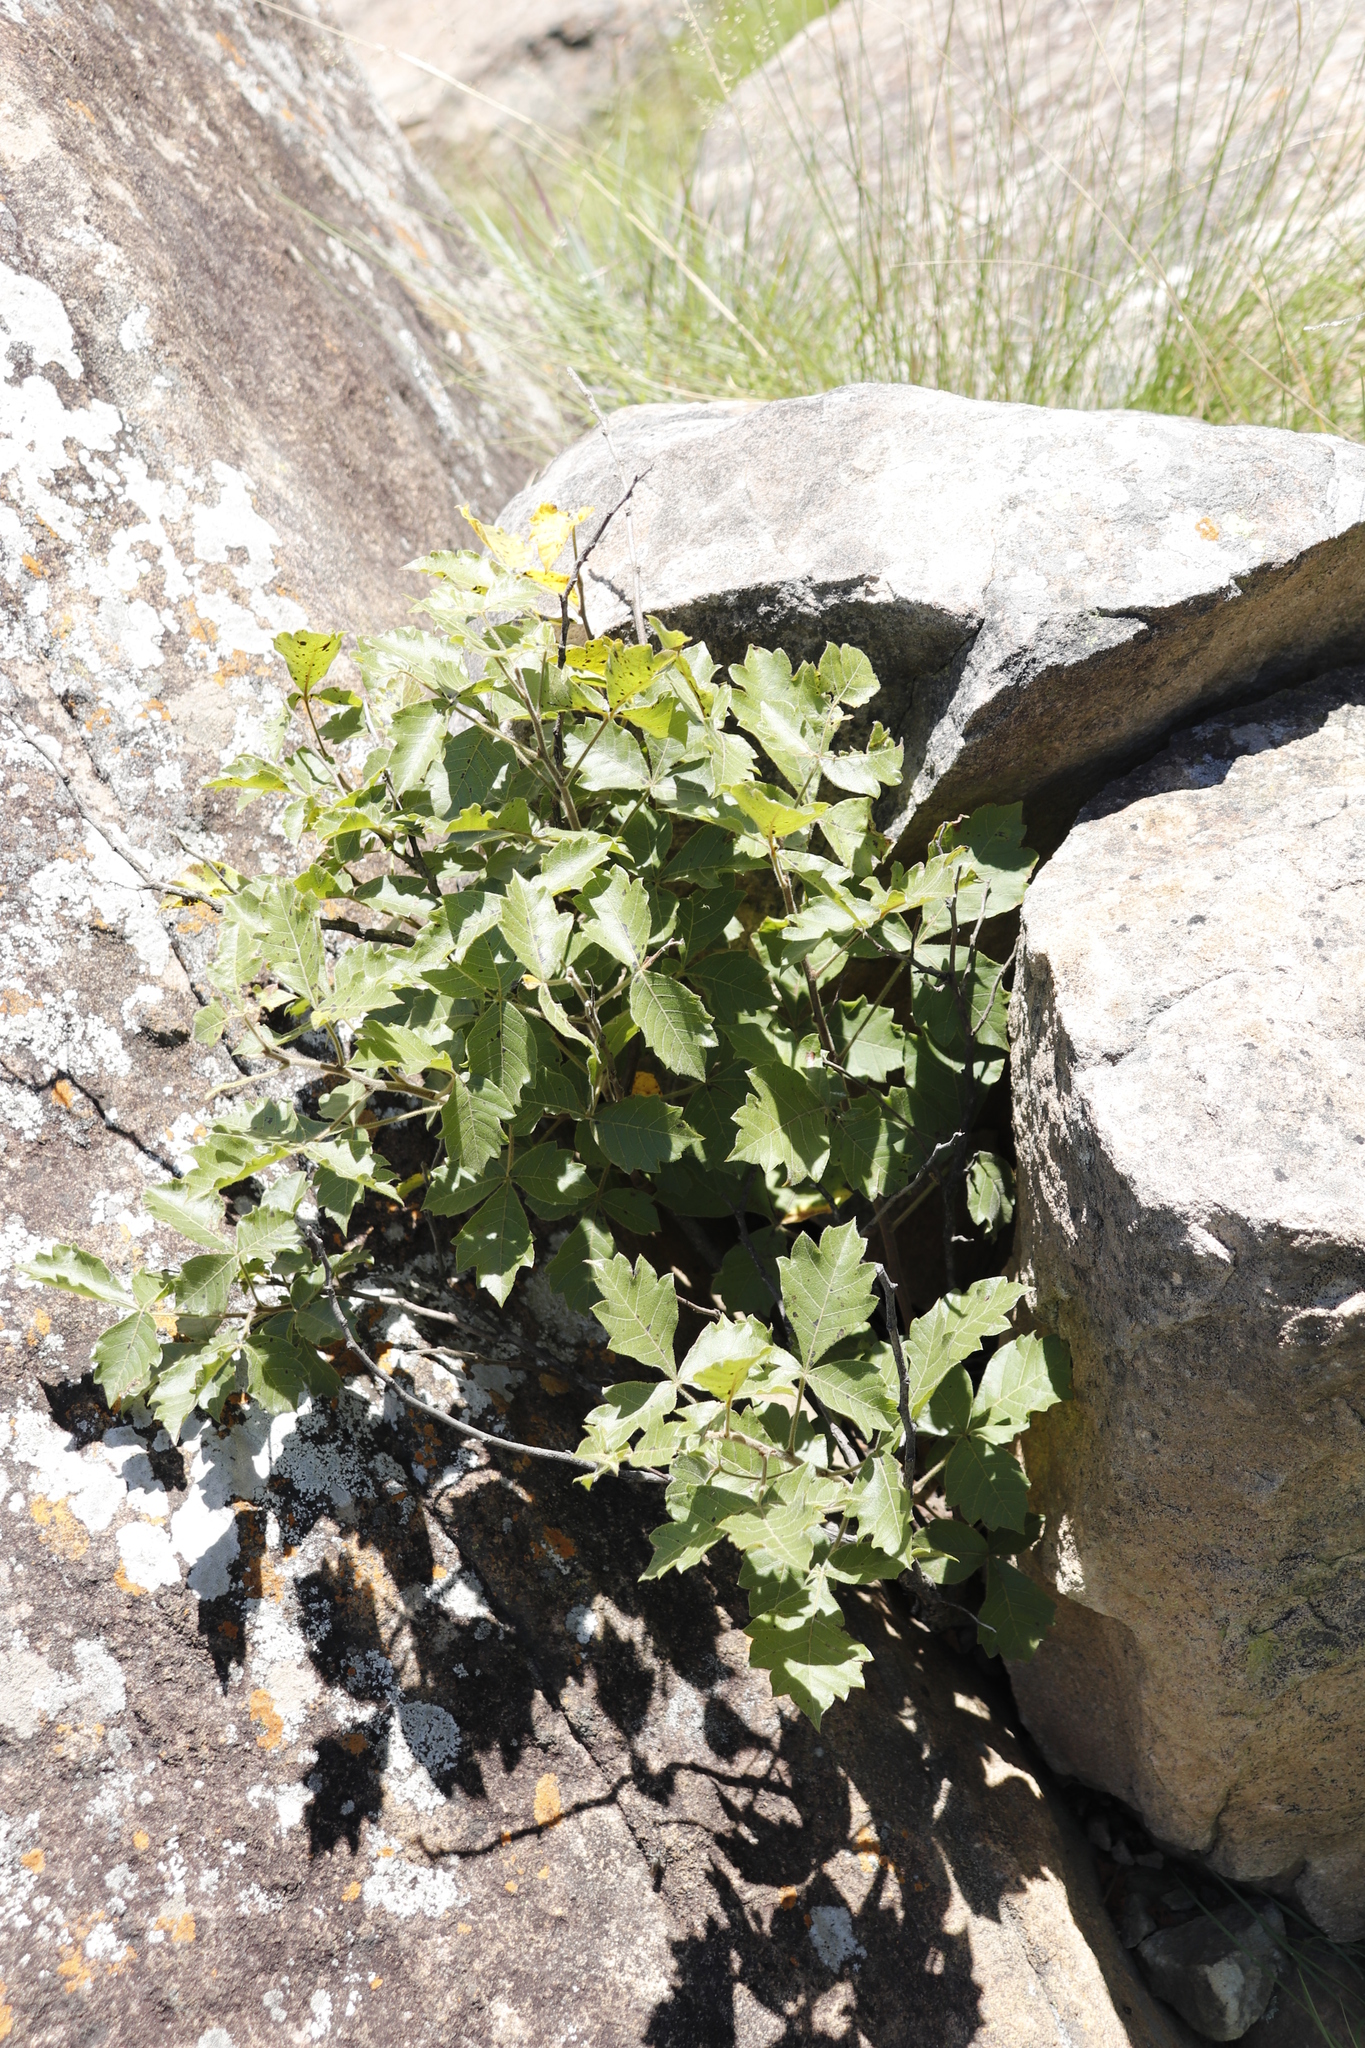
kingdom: Plantae
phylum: Tracheophyta
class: Magnoliopsida
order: Sapindales
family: Anacardiaceae
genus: Searsia
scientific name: Searsia dentata
